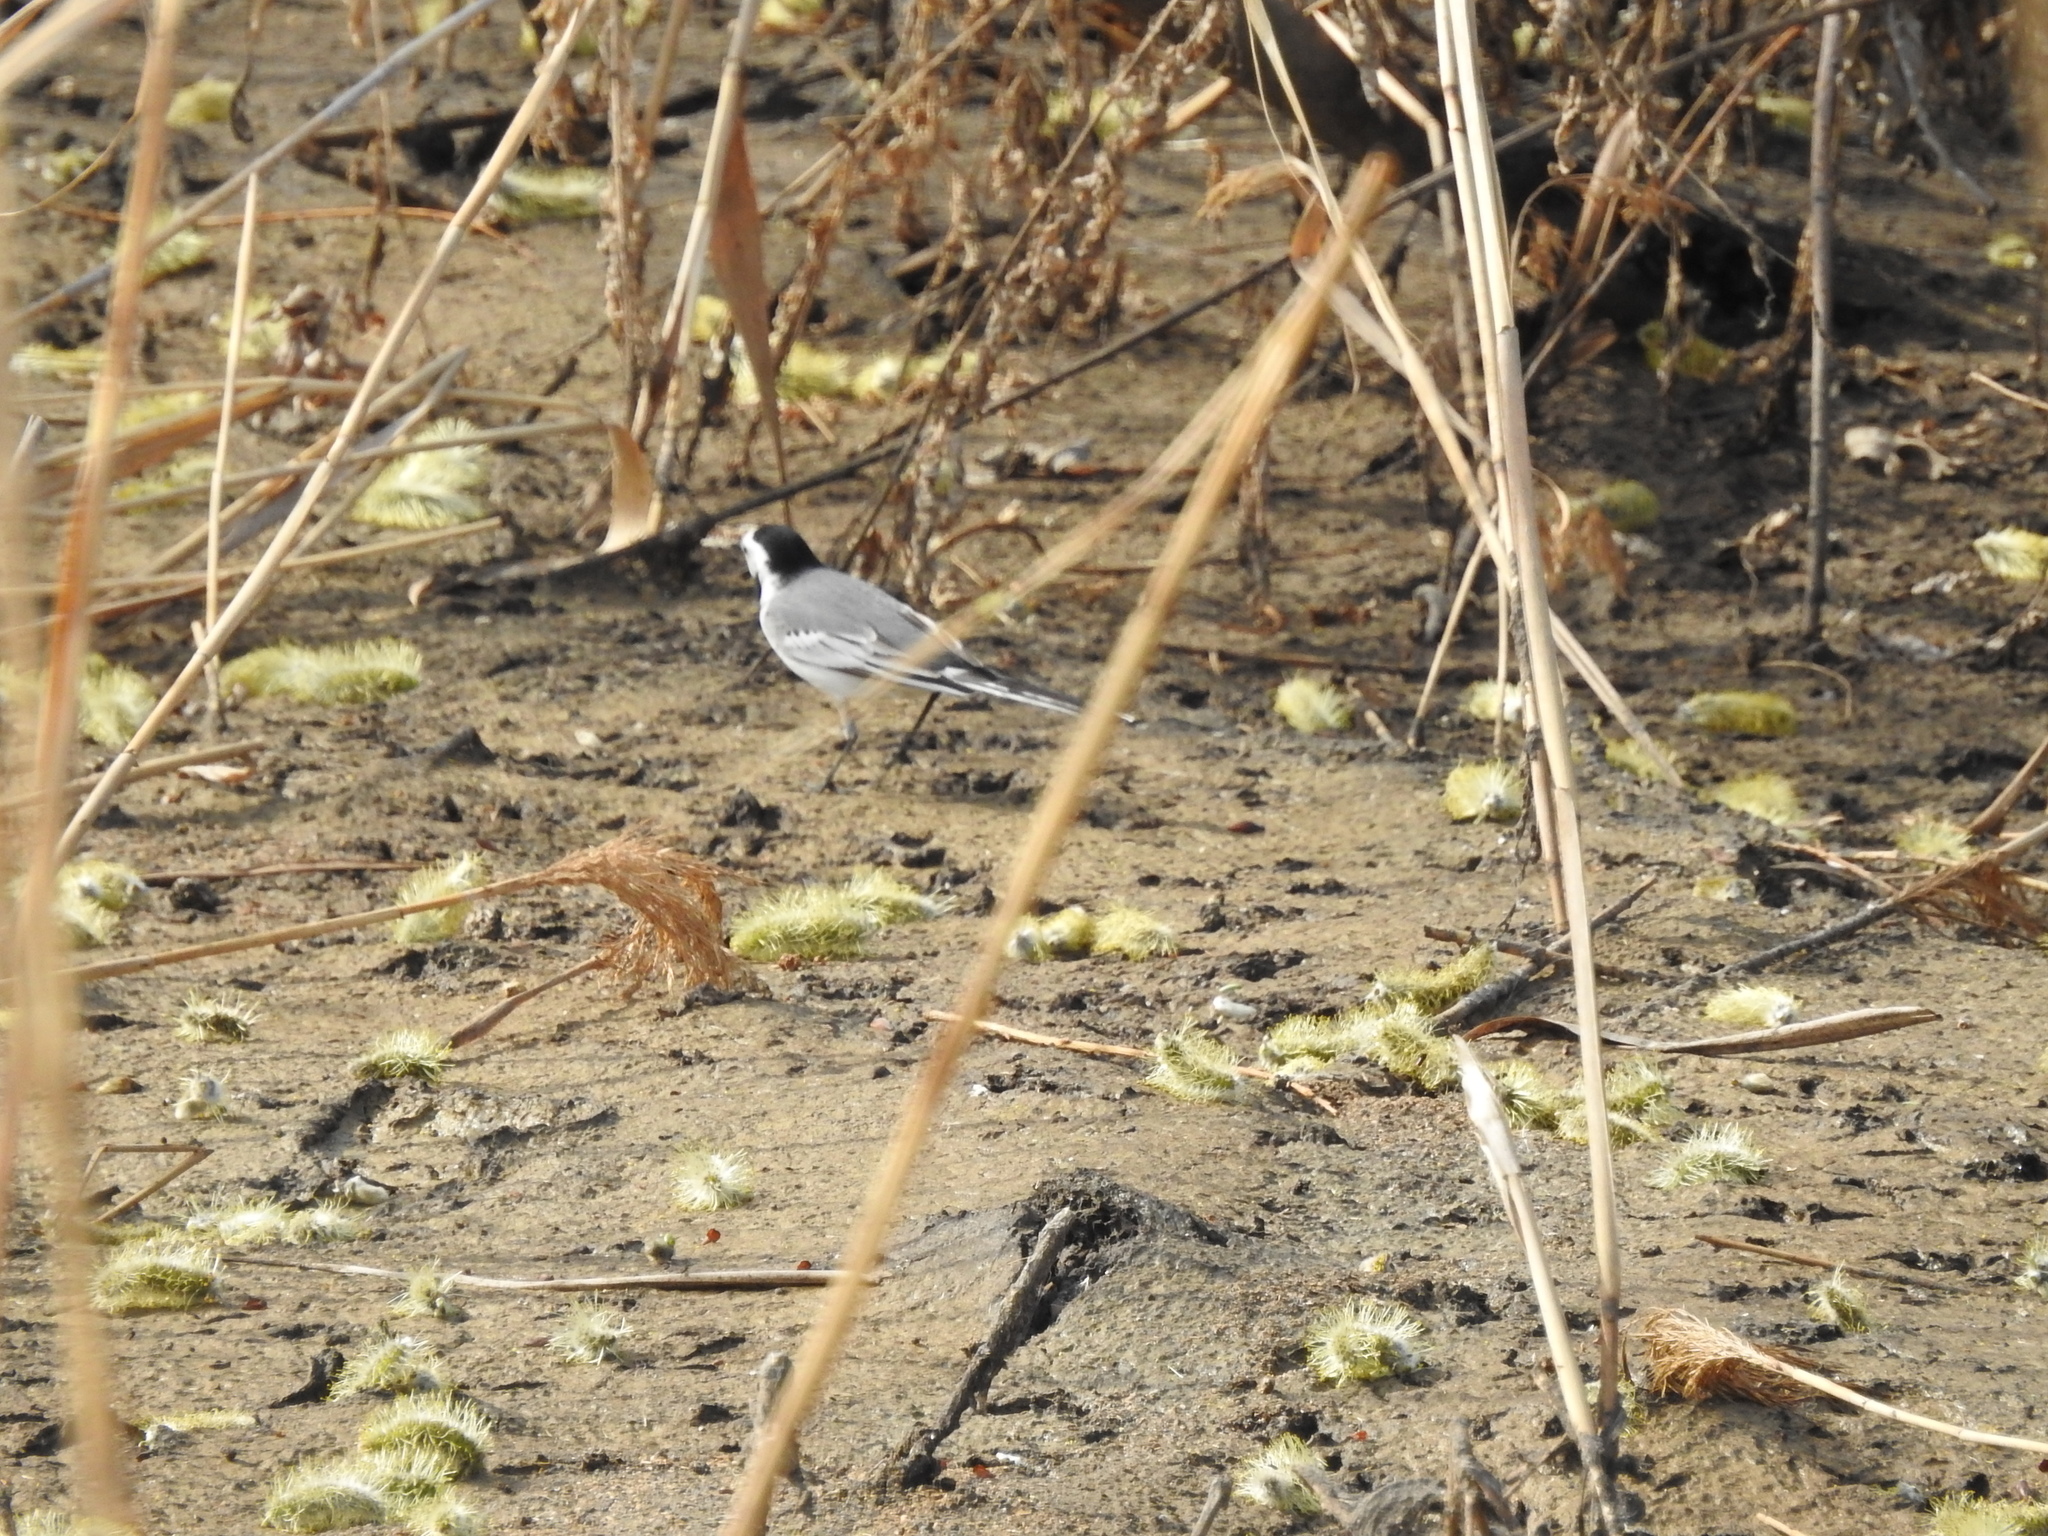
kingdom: Animalia
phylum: Chordata
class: Aves
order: Passeriformes
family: Motacillidae
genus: Motacilla
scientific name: Motacilla alba
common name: White wagtail
